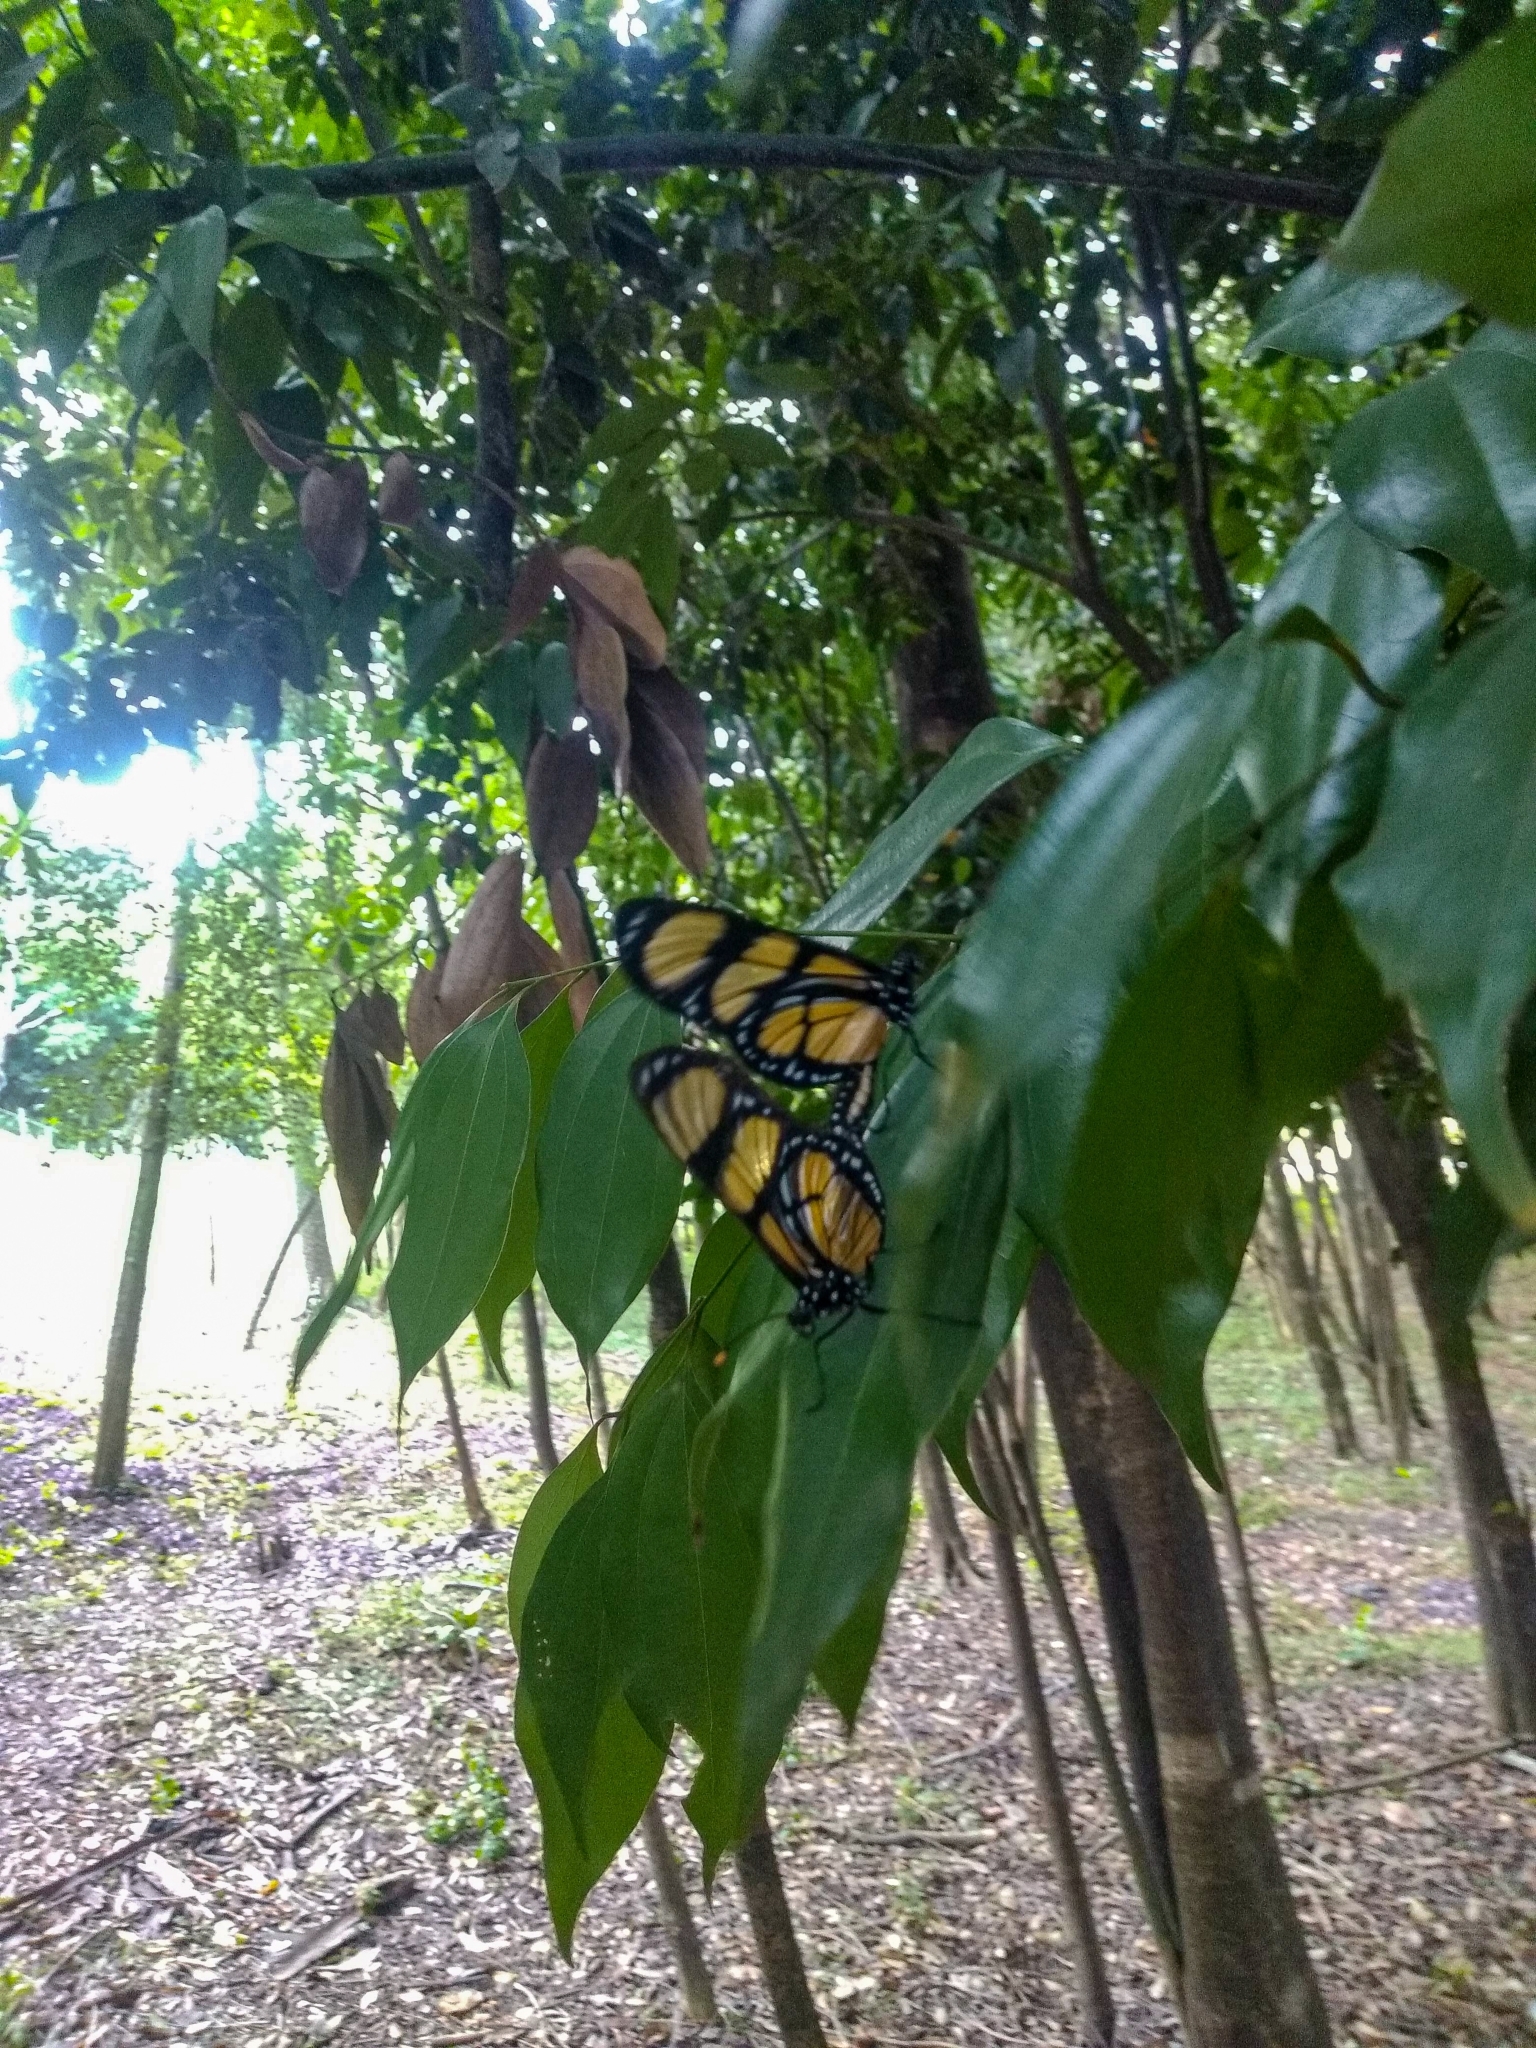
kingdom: Animalia
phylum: Arthropoda
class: Insecta
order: Lepidoptera
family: Nymphalidae
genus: Methona
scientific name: Methona themisto
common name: Themisto amberwing
